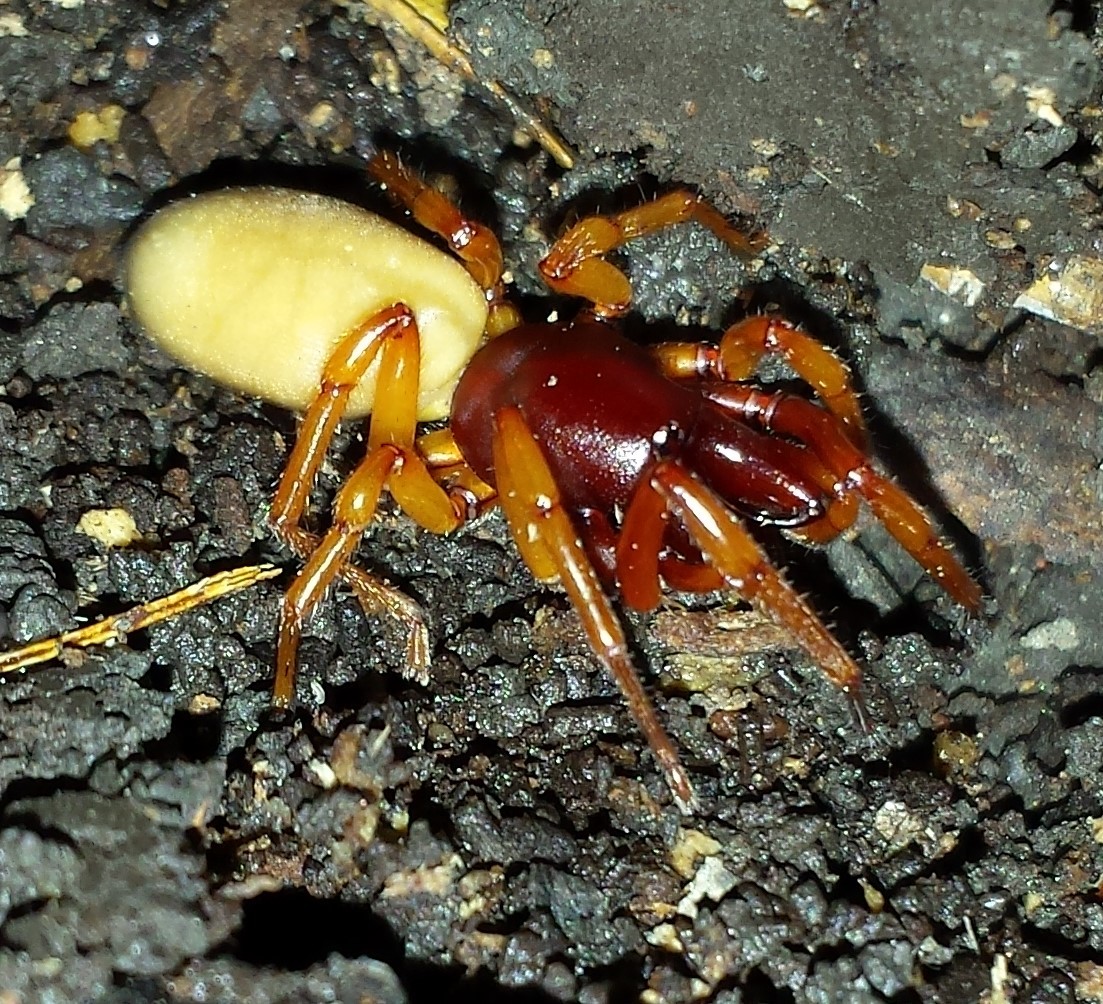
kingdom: Animalia
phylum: Arthropoda
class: Arachnida
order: Araneae
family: Dysderidae
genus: Dysdera
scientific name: Dysdera crocata
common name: Woodlouse spider
